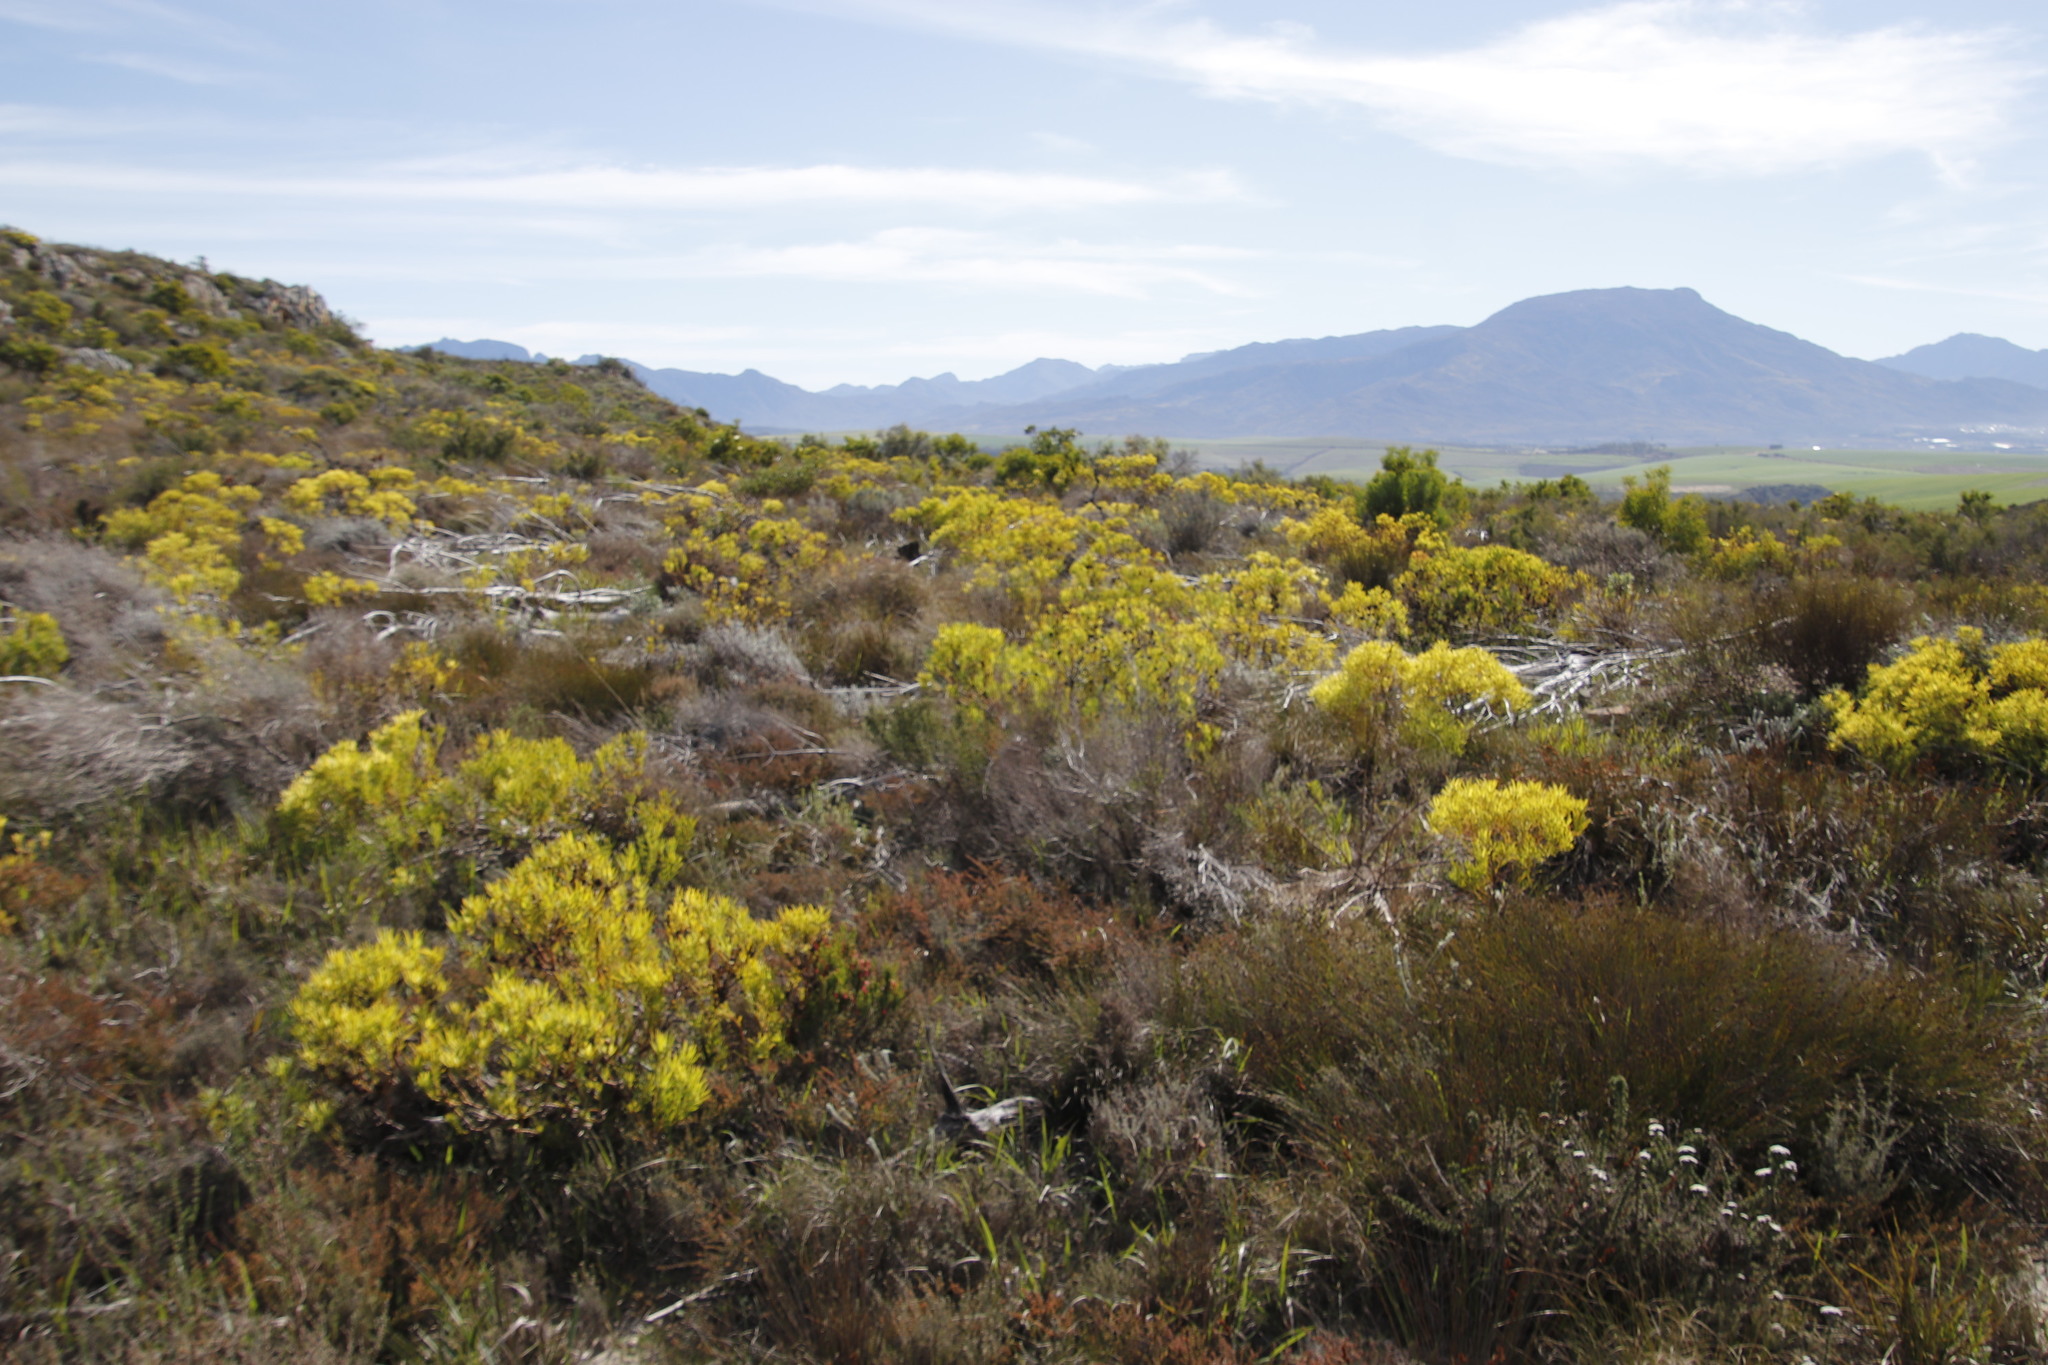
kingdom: Plantae
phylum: Tracheophyta
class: Magnoliopsida
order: Proteales
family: Proteaceae
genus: Leucadendron
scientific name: Leucadendron salignum
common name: Common sunshine conebush
